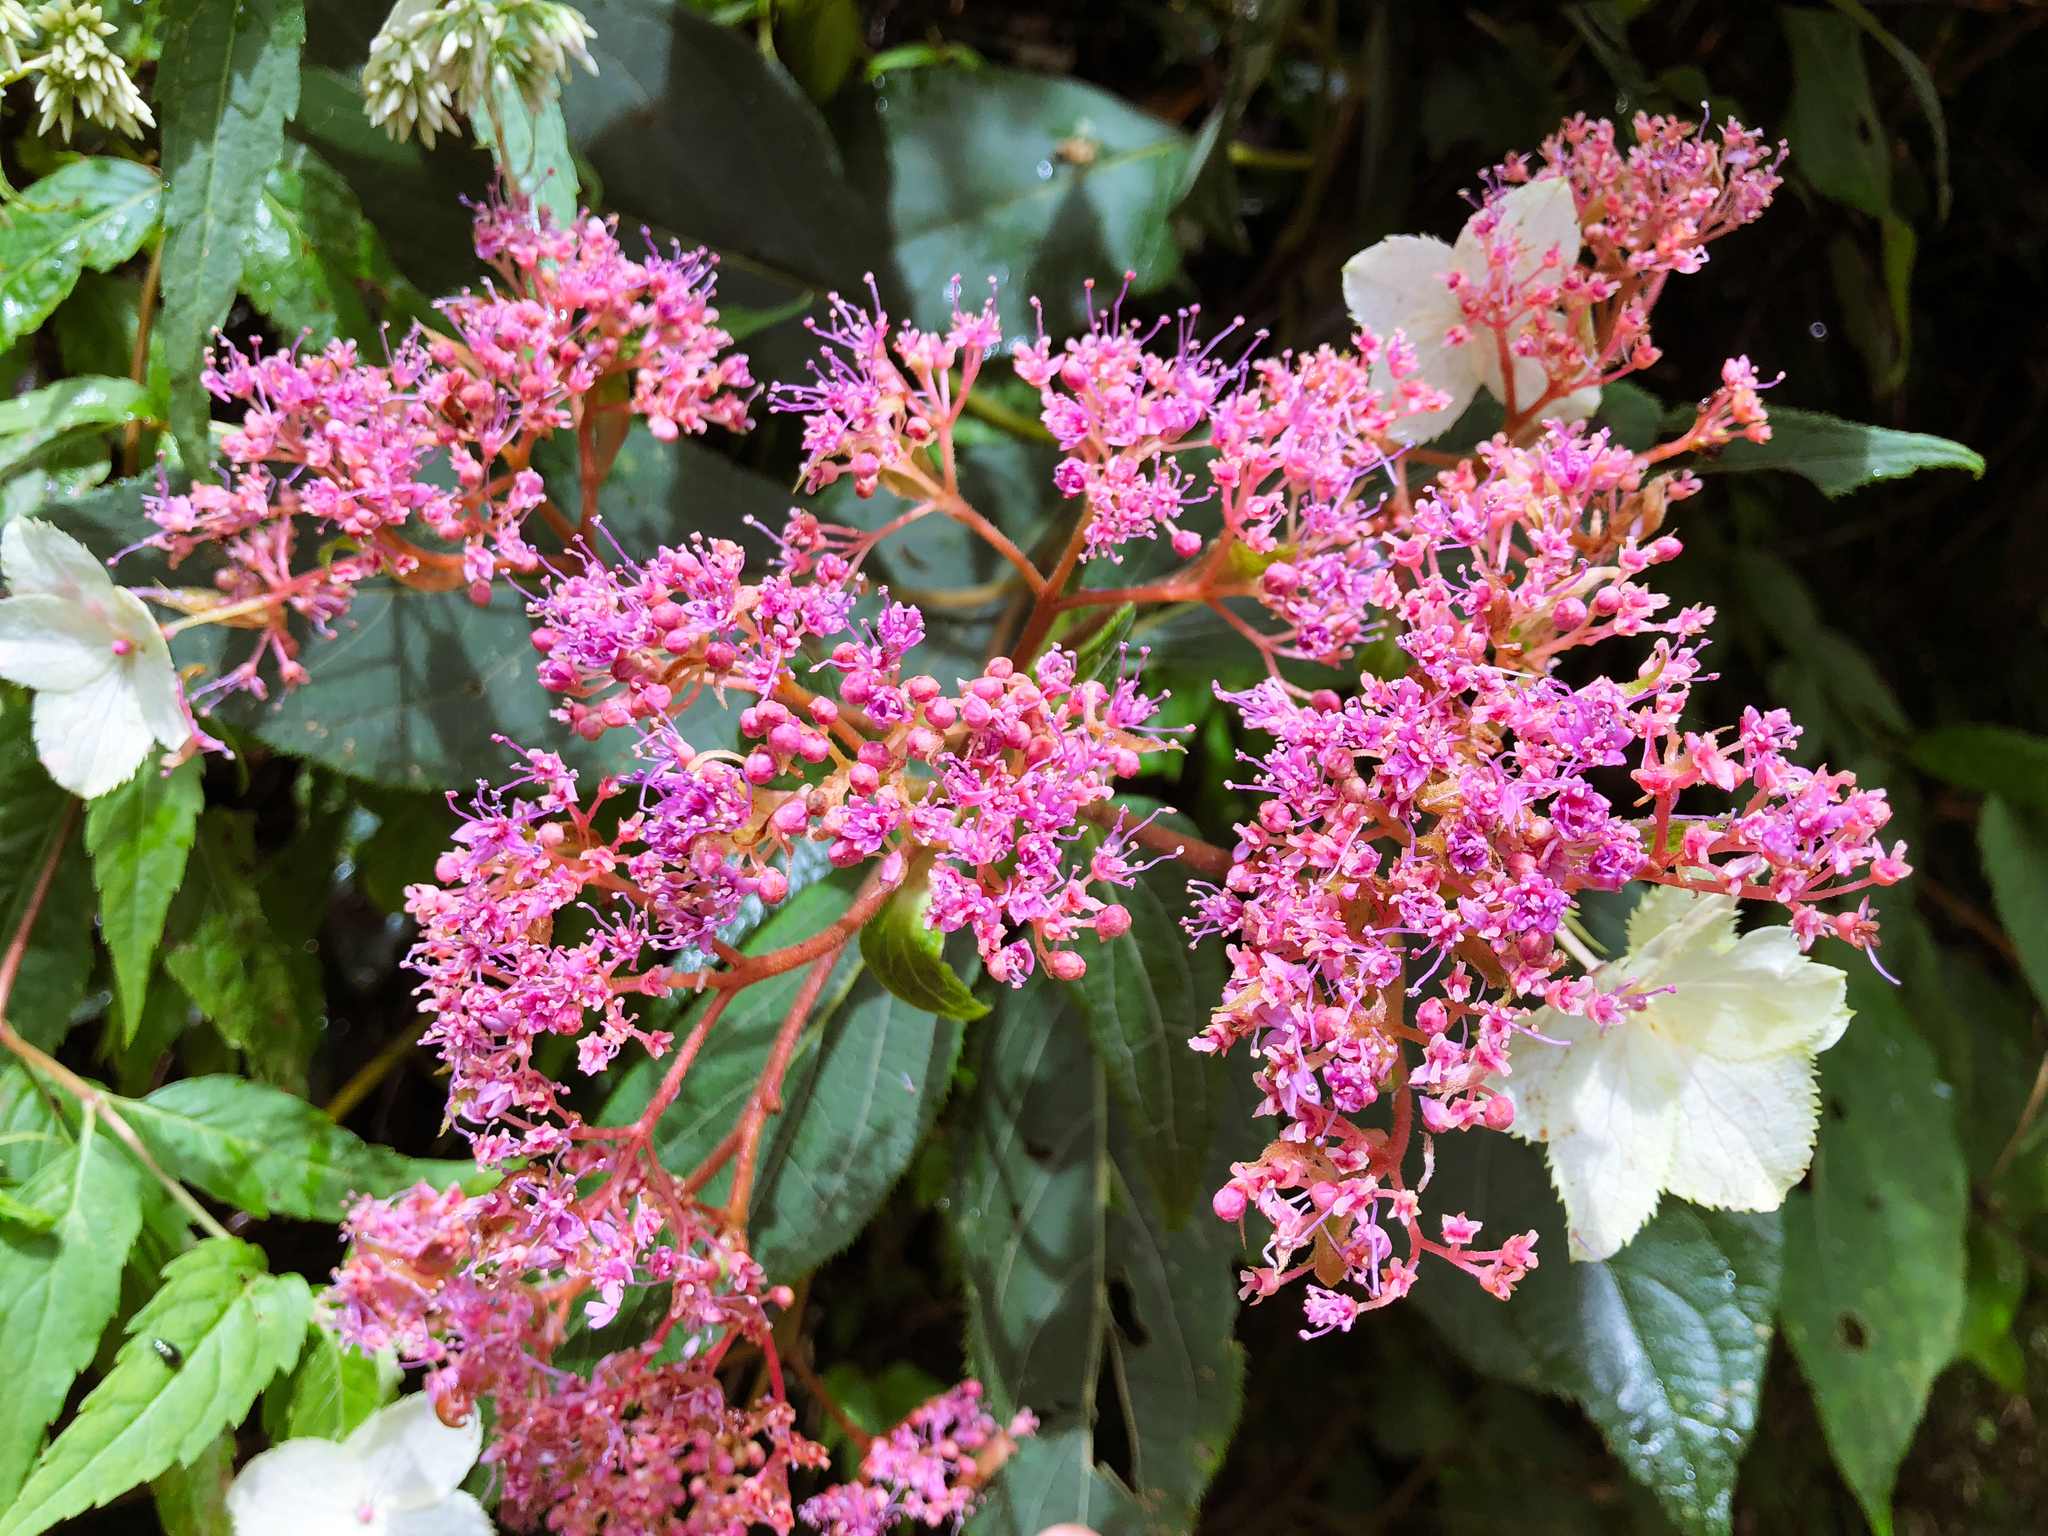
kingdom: Plantae
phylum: Tracheophyta
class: Magnoliopsida
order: Cornales
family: Hydrangeaceae
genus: Hydrangea
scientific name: Hydrangea aspera
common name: Rough-leaf hydrangea
